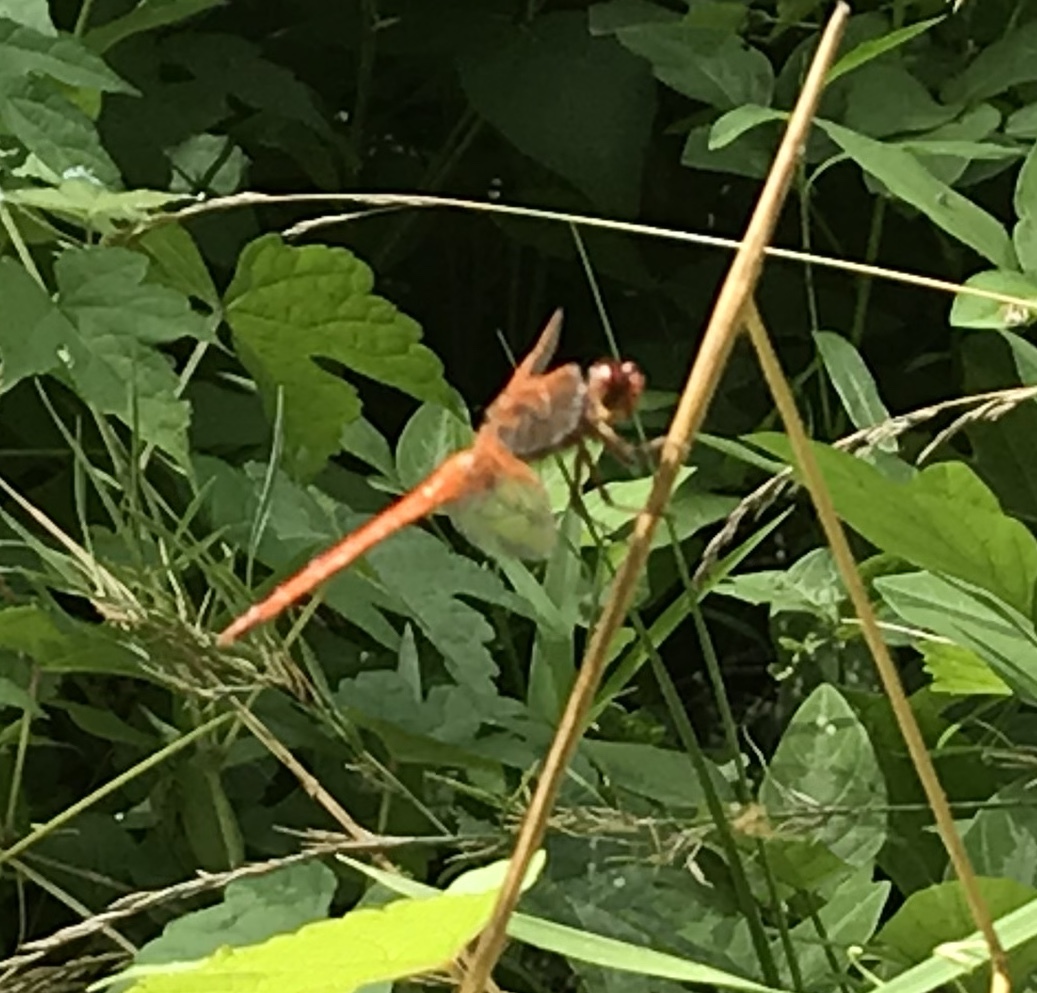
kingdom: Animalia
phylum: Arthropoda
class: Insecta
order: Odonata
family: Libellulidae
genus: Libellula
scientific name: Libellula needhami
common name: Needham's skimmer
